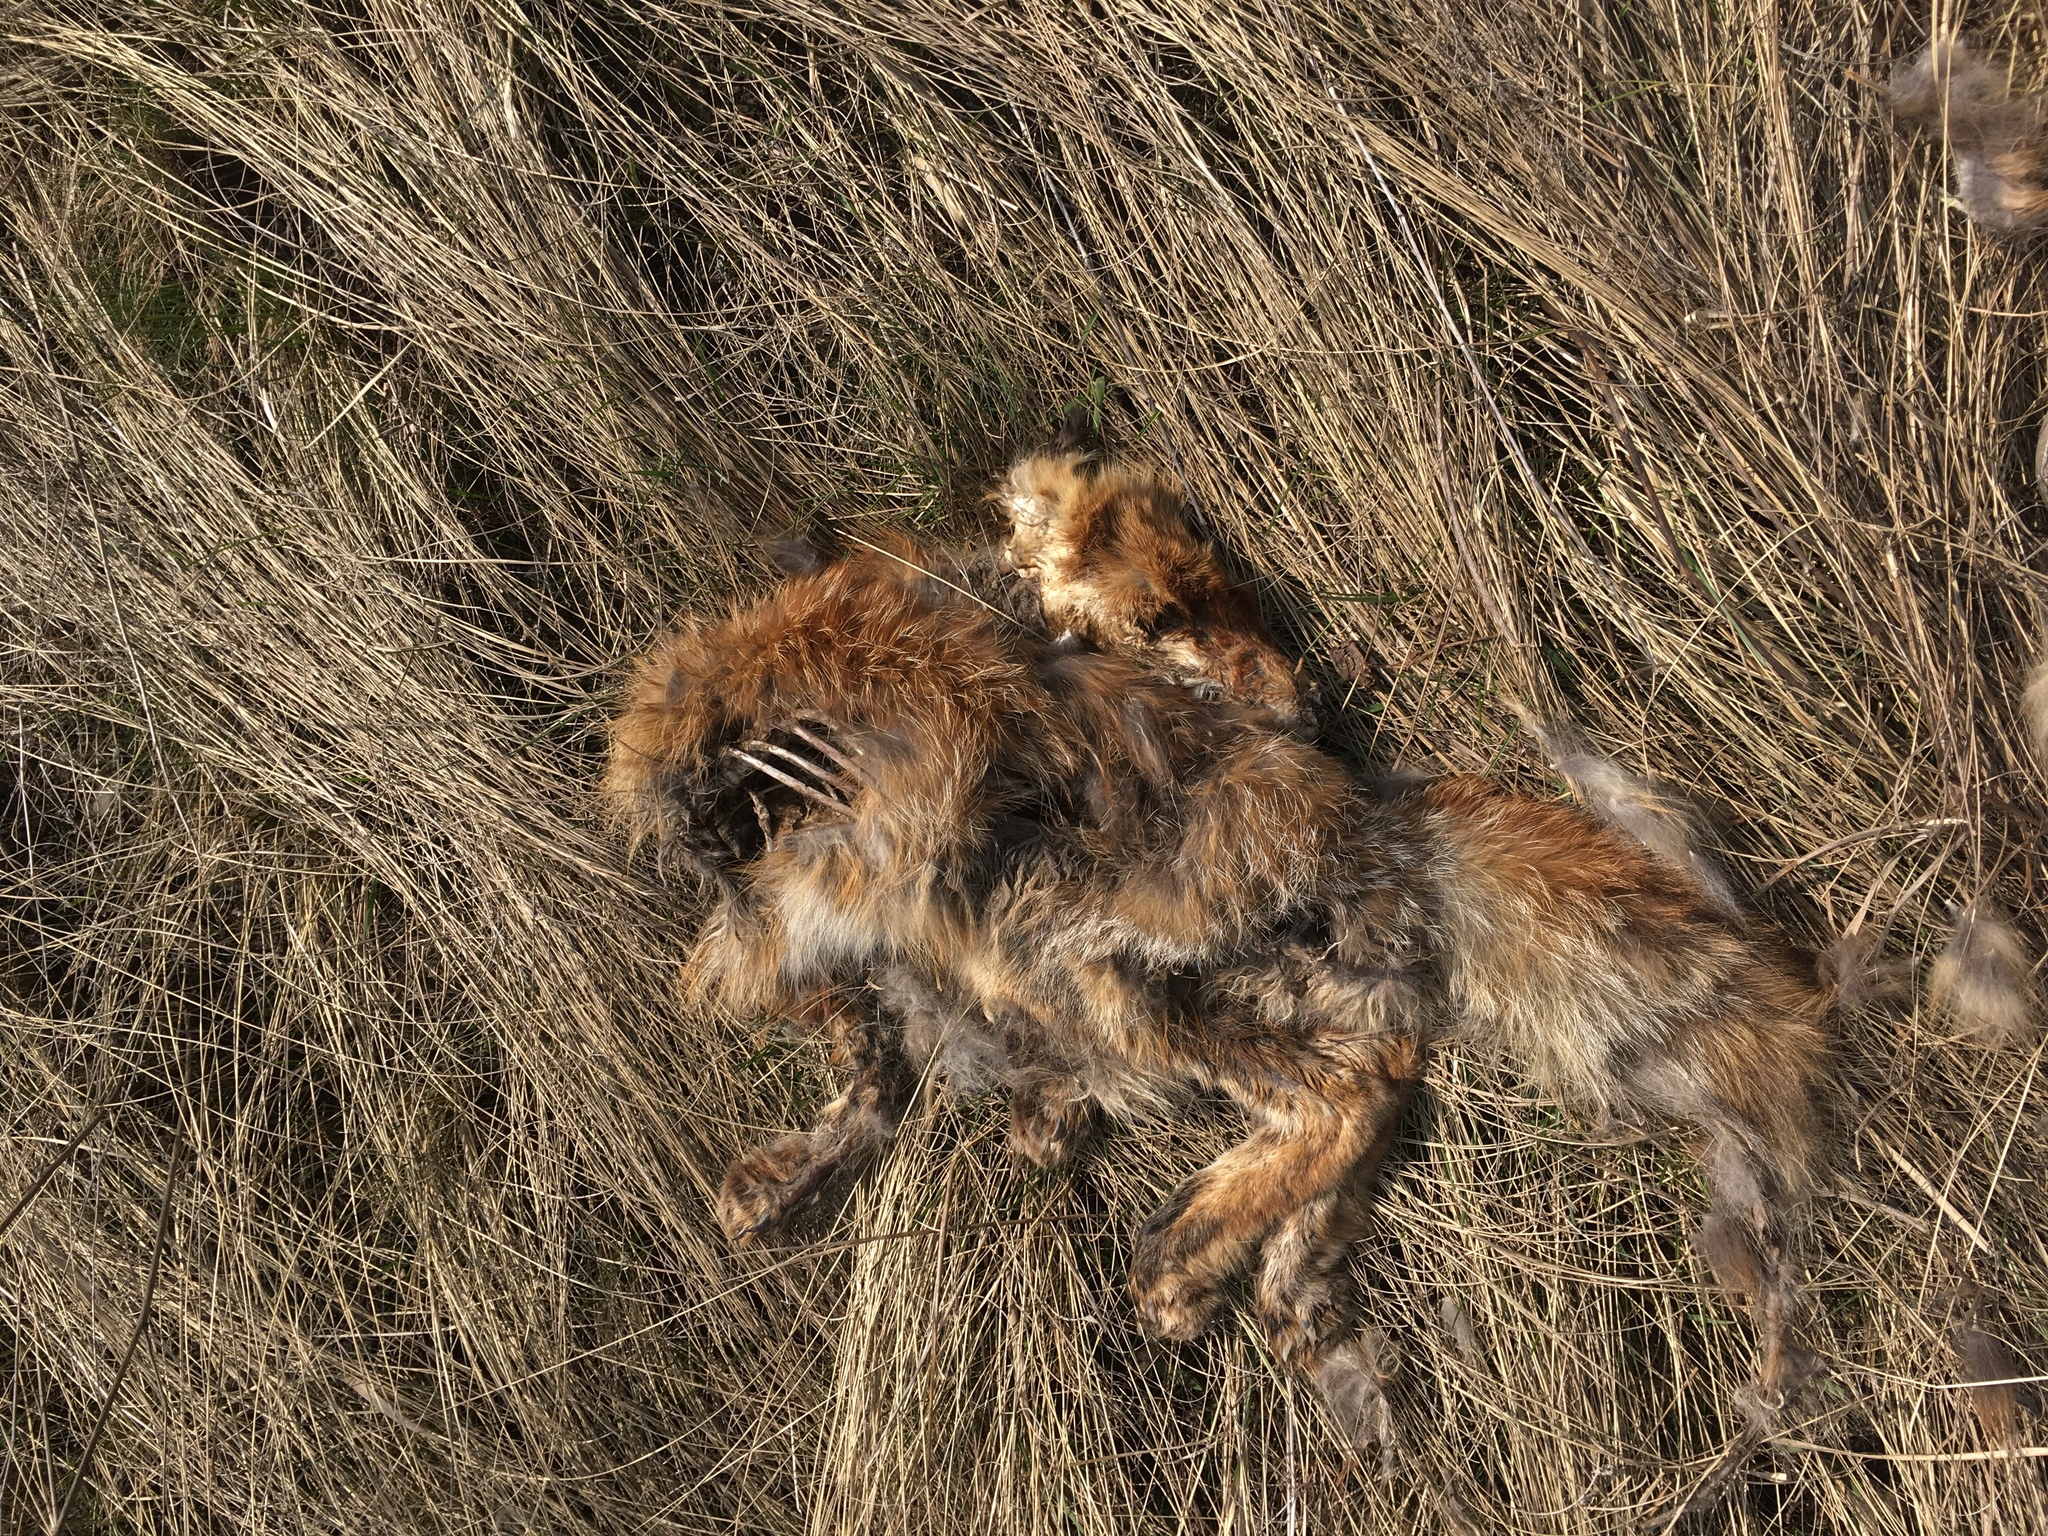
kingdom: Animalia
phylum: Chordata
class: Mammalia
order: Carnivora
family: Canidae
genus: Vulpes
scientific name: Vulpes vulpes
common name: Red fox
